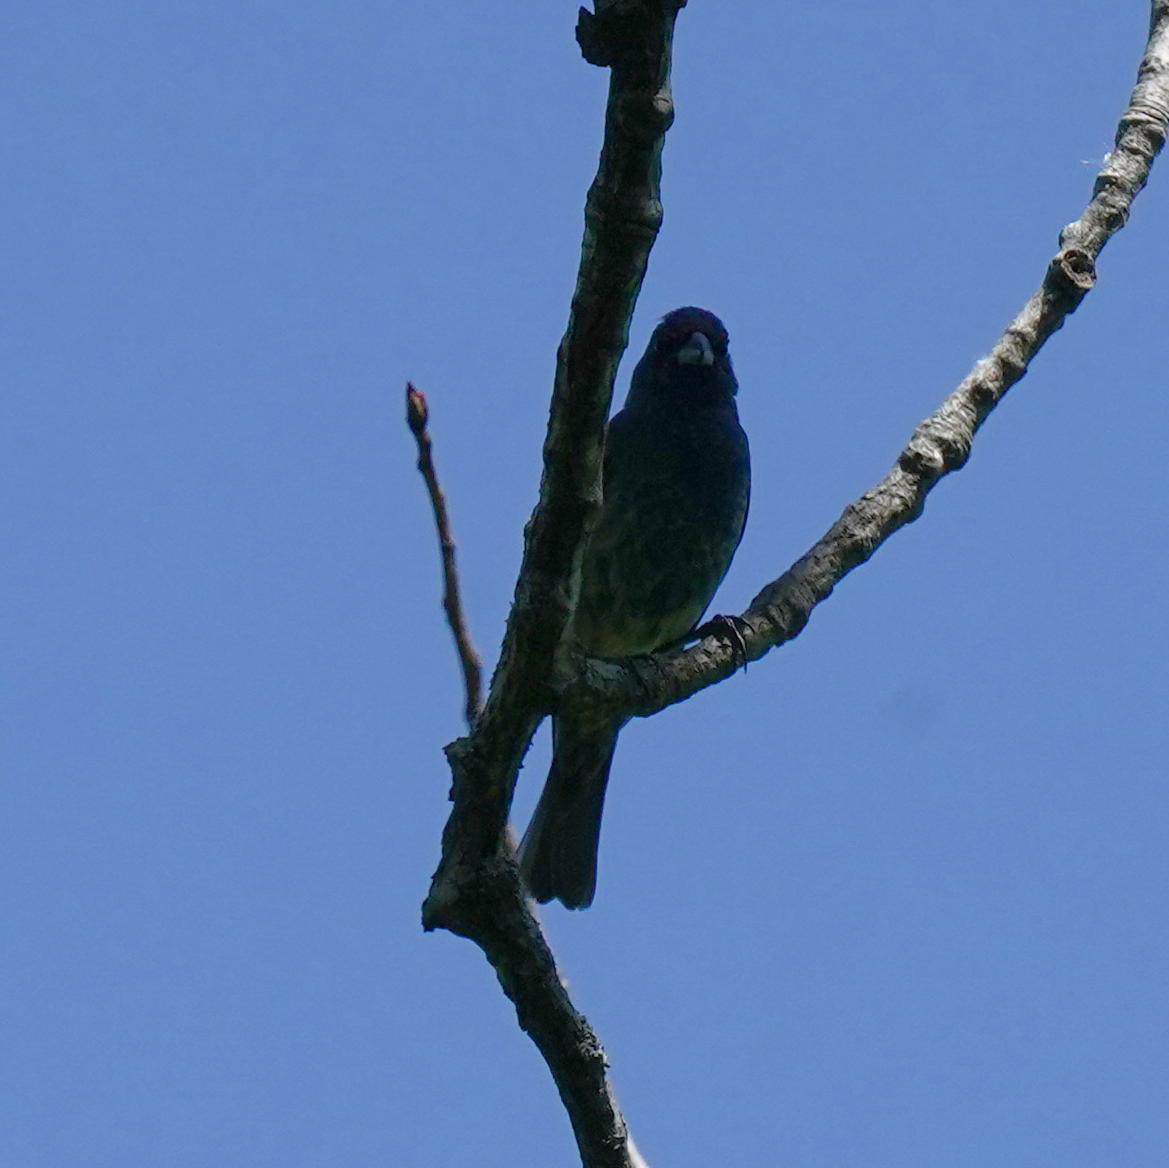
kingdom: Animalia
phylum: Chordata
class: Aves
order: Passeriformes
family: Cardinalidae
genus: Passerina
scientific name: Passerina cyanea
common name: Indigo bunting
